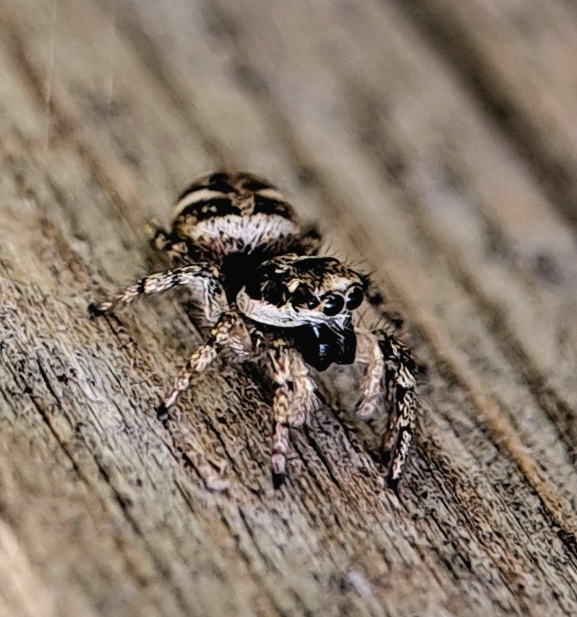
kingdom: Animalia
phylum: Arthropoda
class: Arachnida
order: Araneae
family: Salticidae
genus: Salticus
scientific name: Salticus scenicus
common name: Zebra jumper
